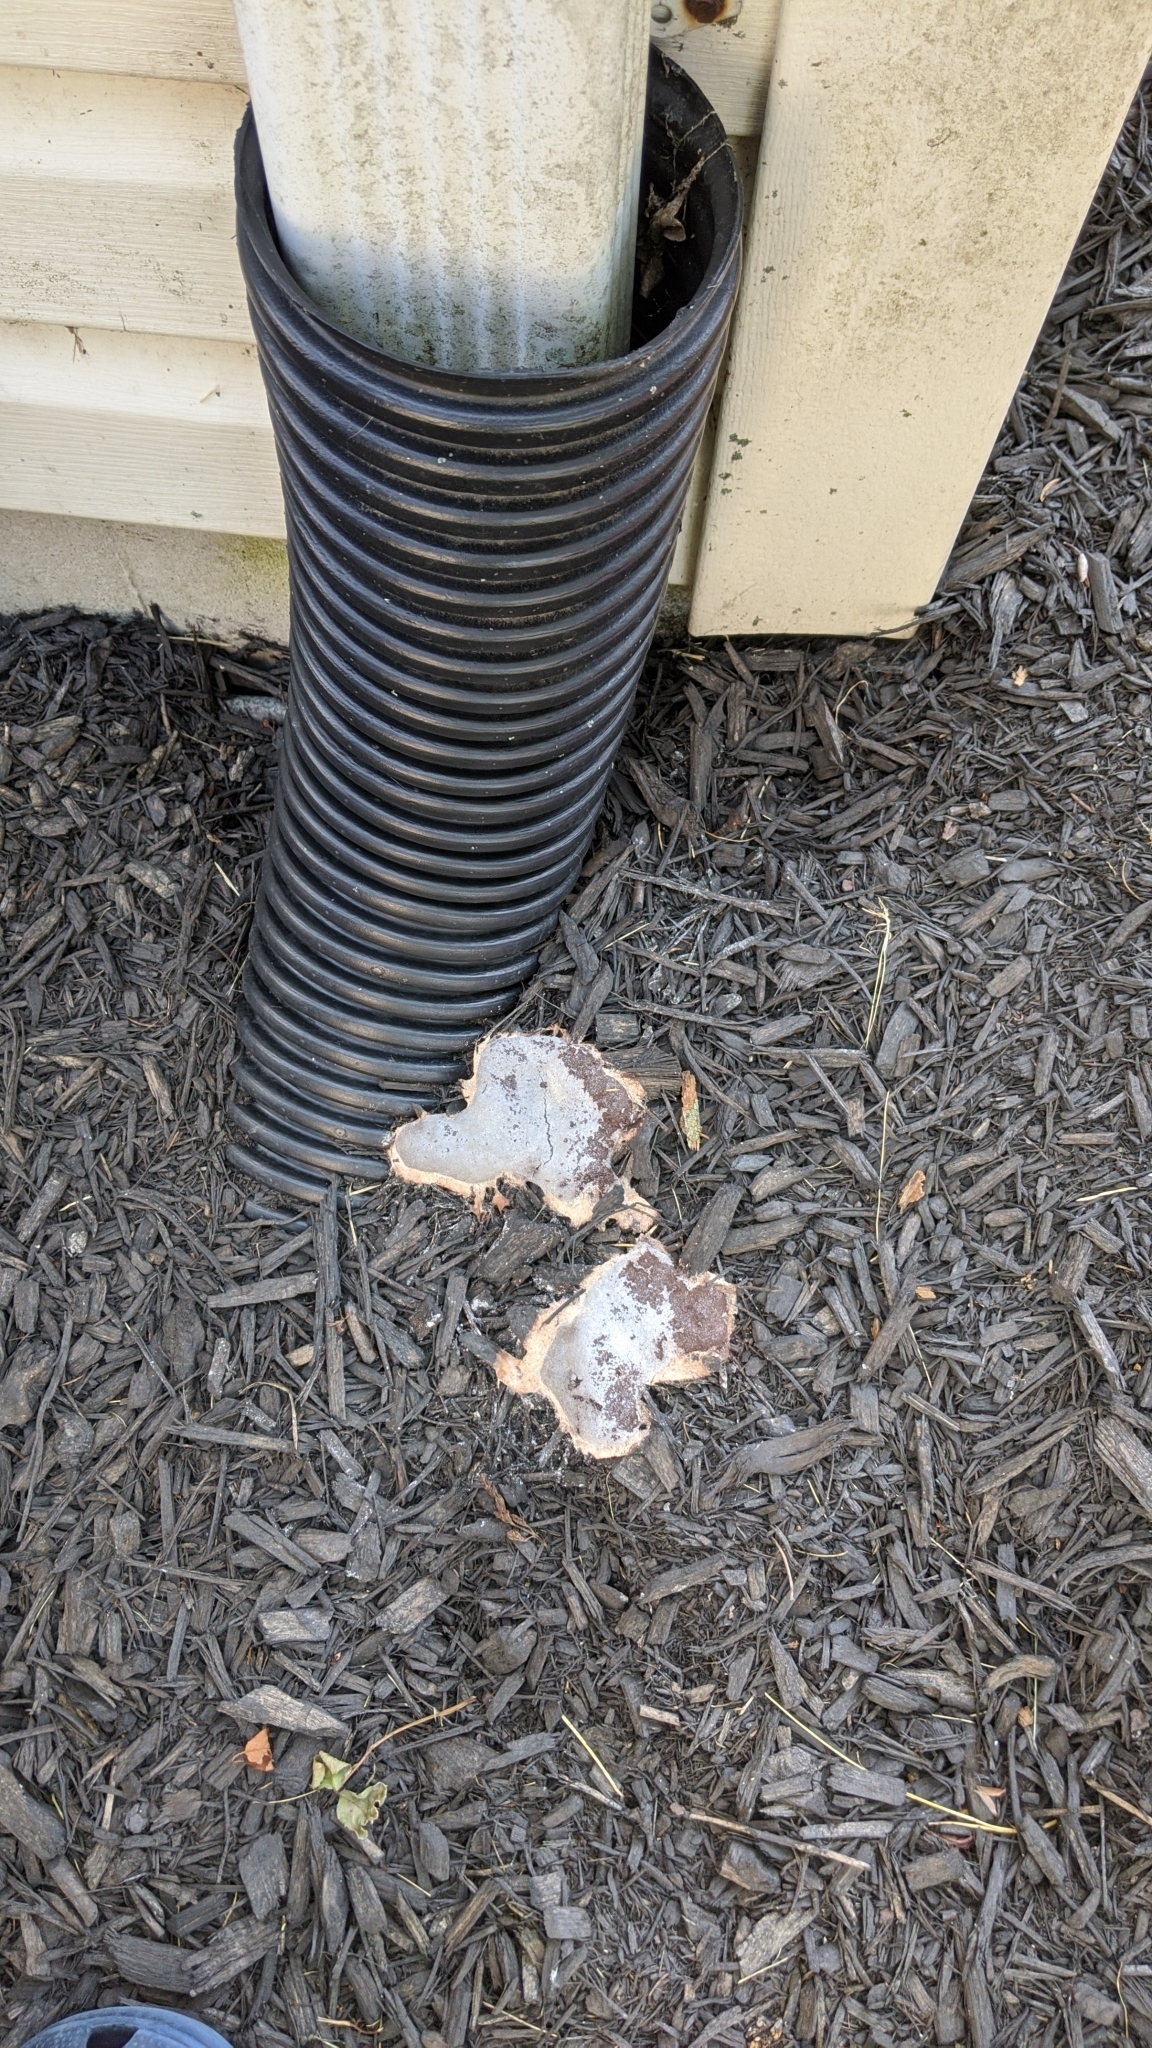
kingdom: Protozoa
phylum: Mycetozoa
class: Myxomycetes
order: Physarales
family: Physaraceae
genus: Fuligo
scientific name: Fuligo septica
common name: Dog vomit slime mold
